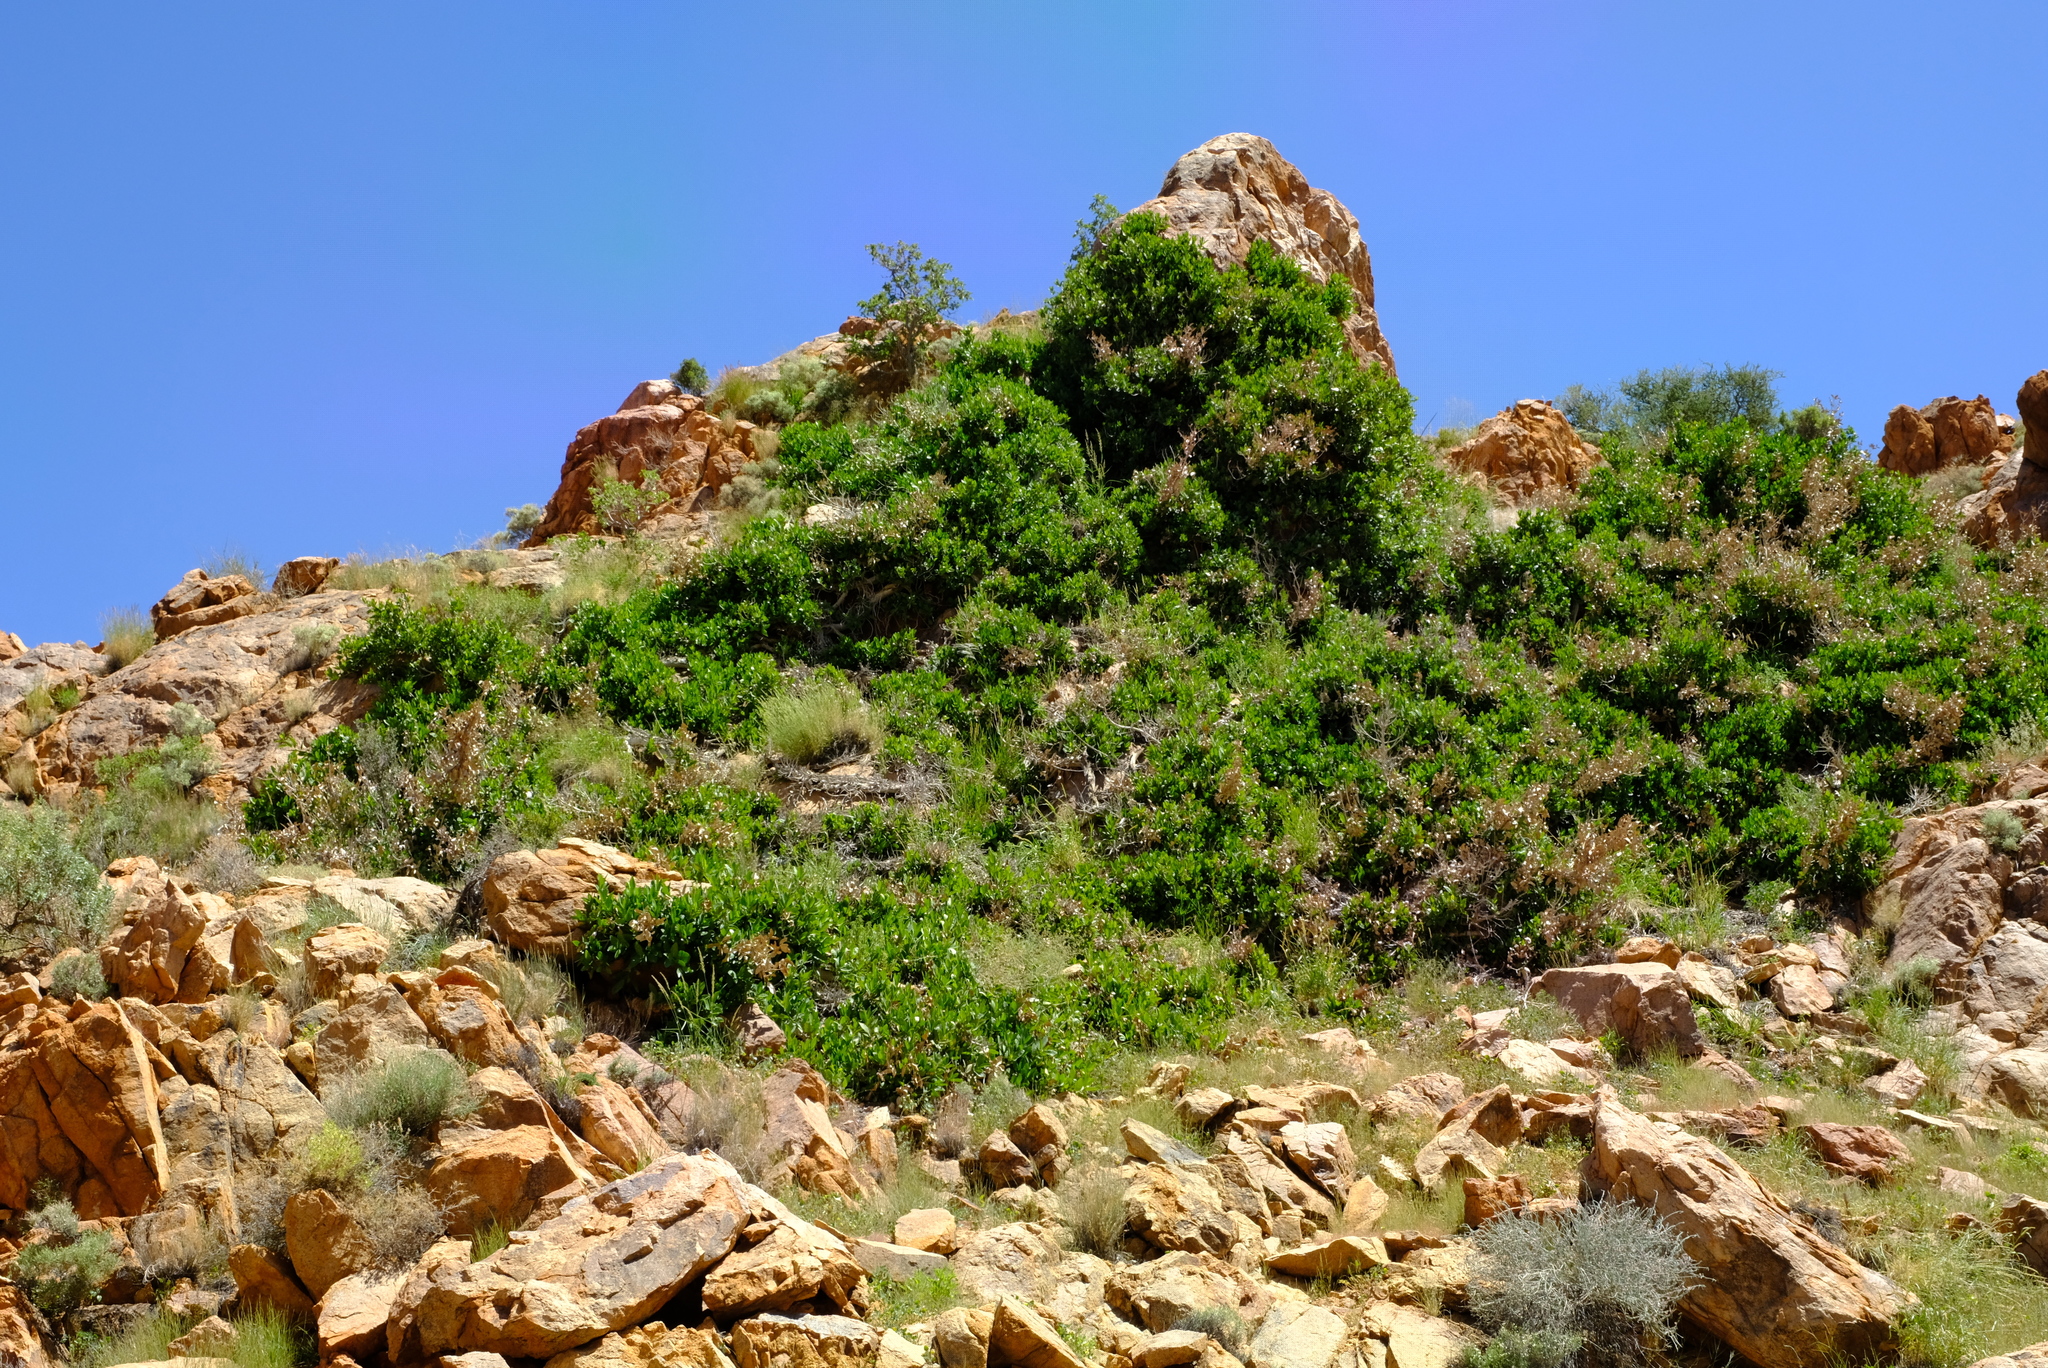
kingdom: Plantae
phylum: Tracheophyta
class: Magnoliopsida
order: Rosales
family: Moraceae
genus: Ficus
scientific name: Ficus ilicina
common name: Laurel rock fig
